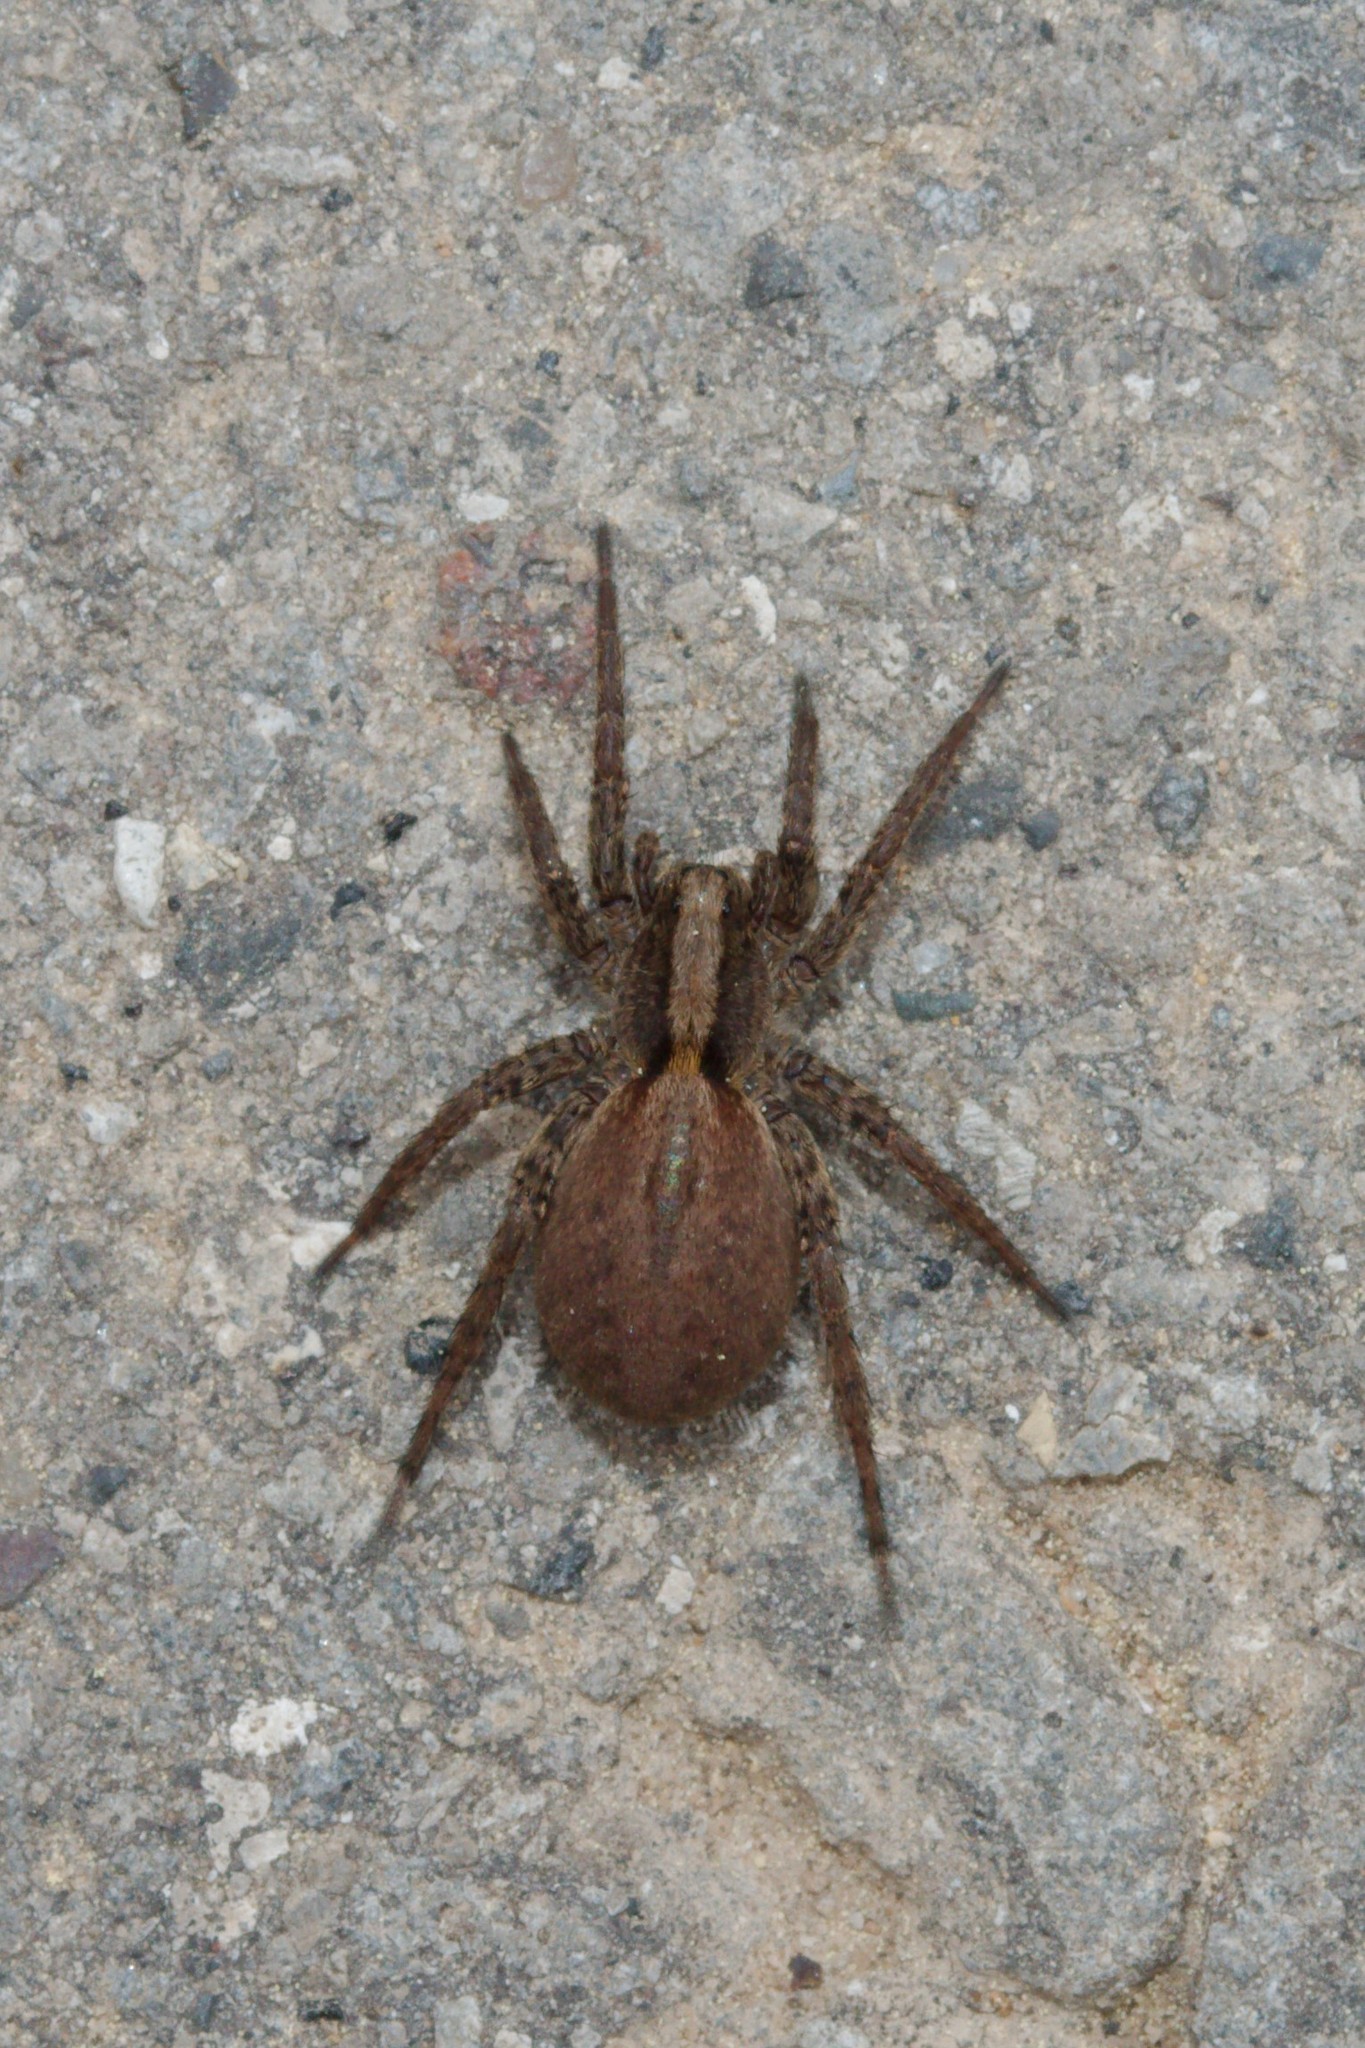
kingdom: Animalia
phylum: Arthropoda
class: Arachnida
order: Araneae
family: Lycosidae
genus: Alopecosa
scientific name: Alopecosa
